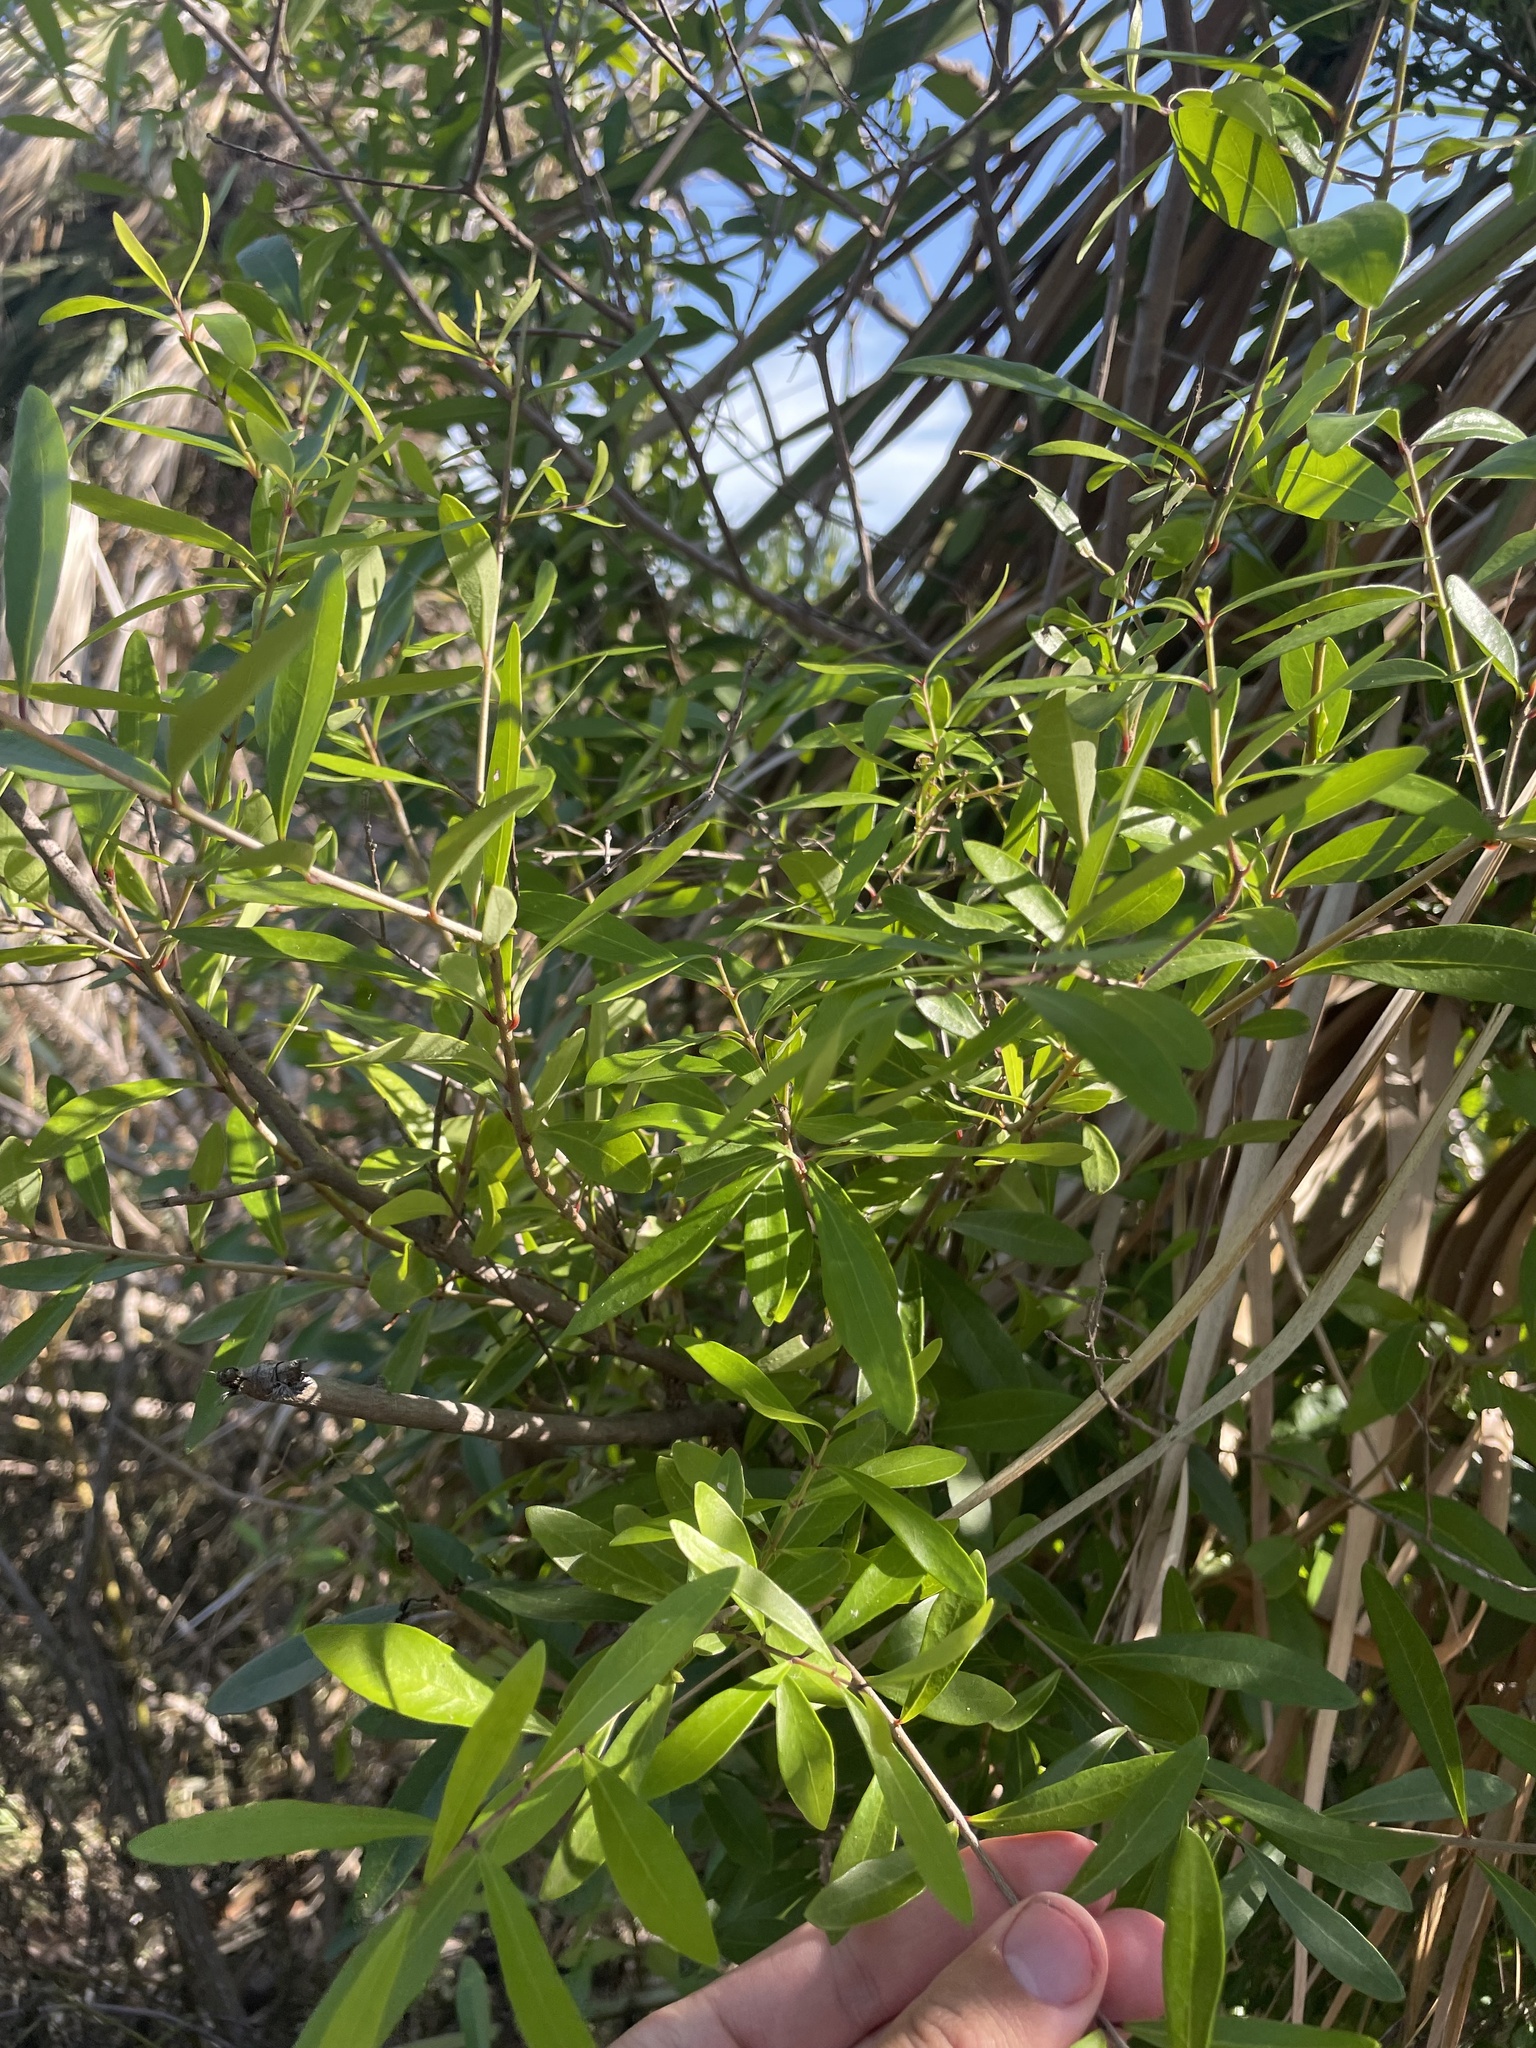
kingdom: Plantae
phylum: Tracheophyta
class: Magnoliopsida
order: Lamiales
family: Oleaceae
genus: Forestiera
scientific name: Forestiera segregata
